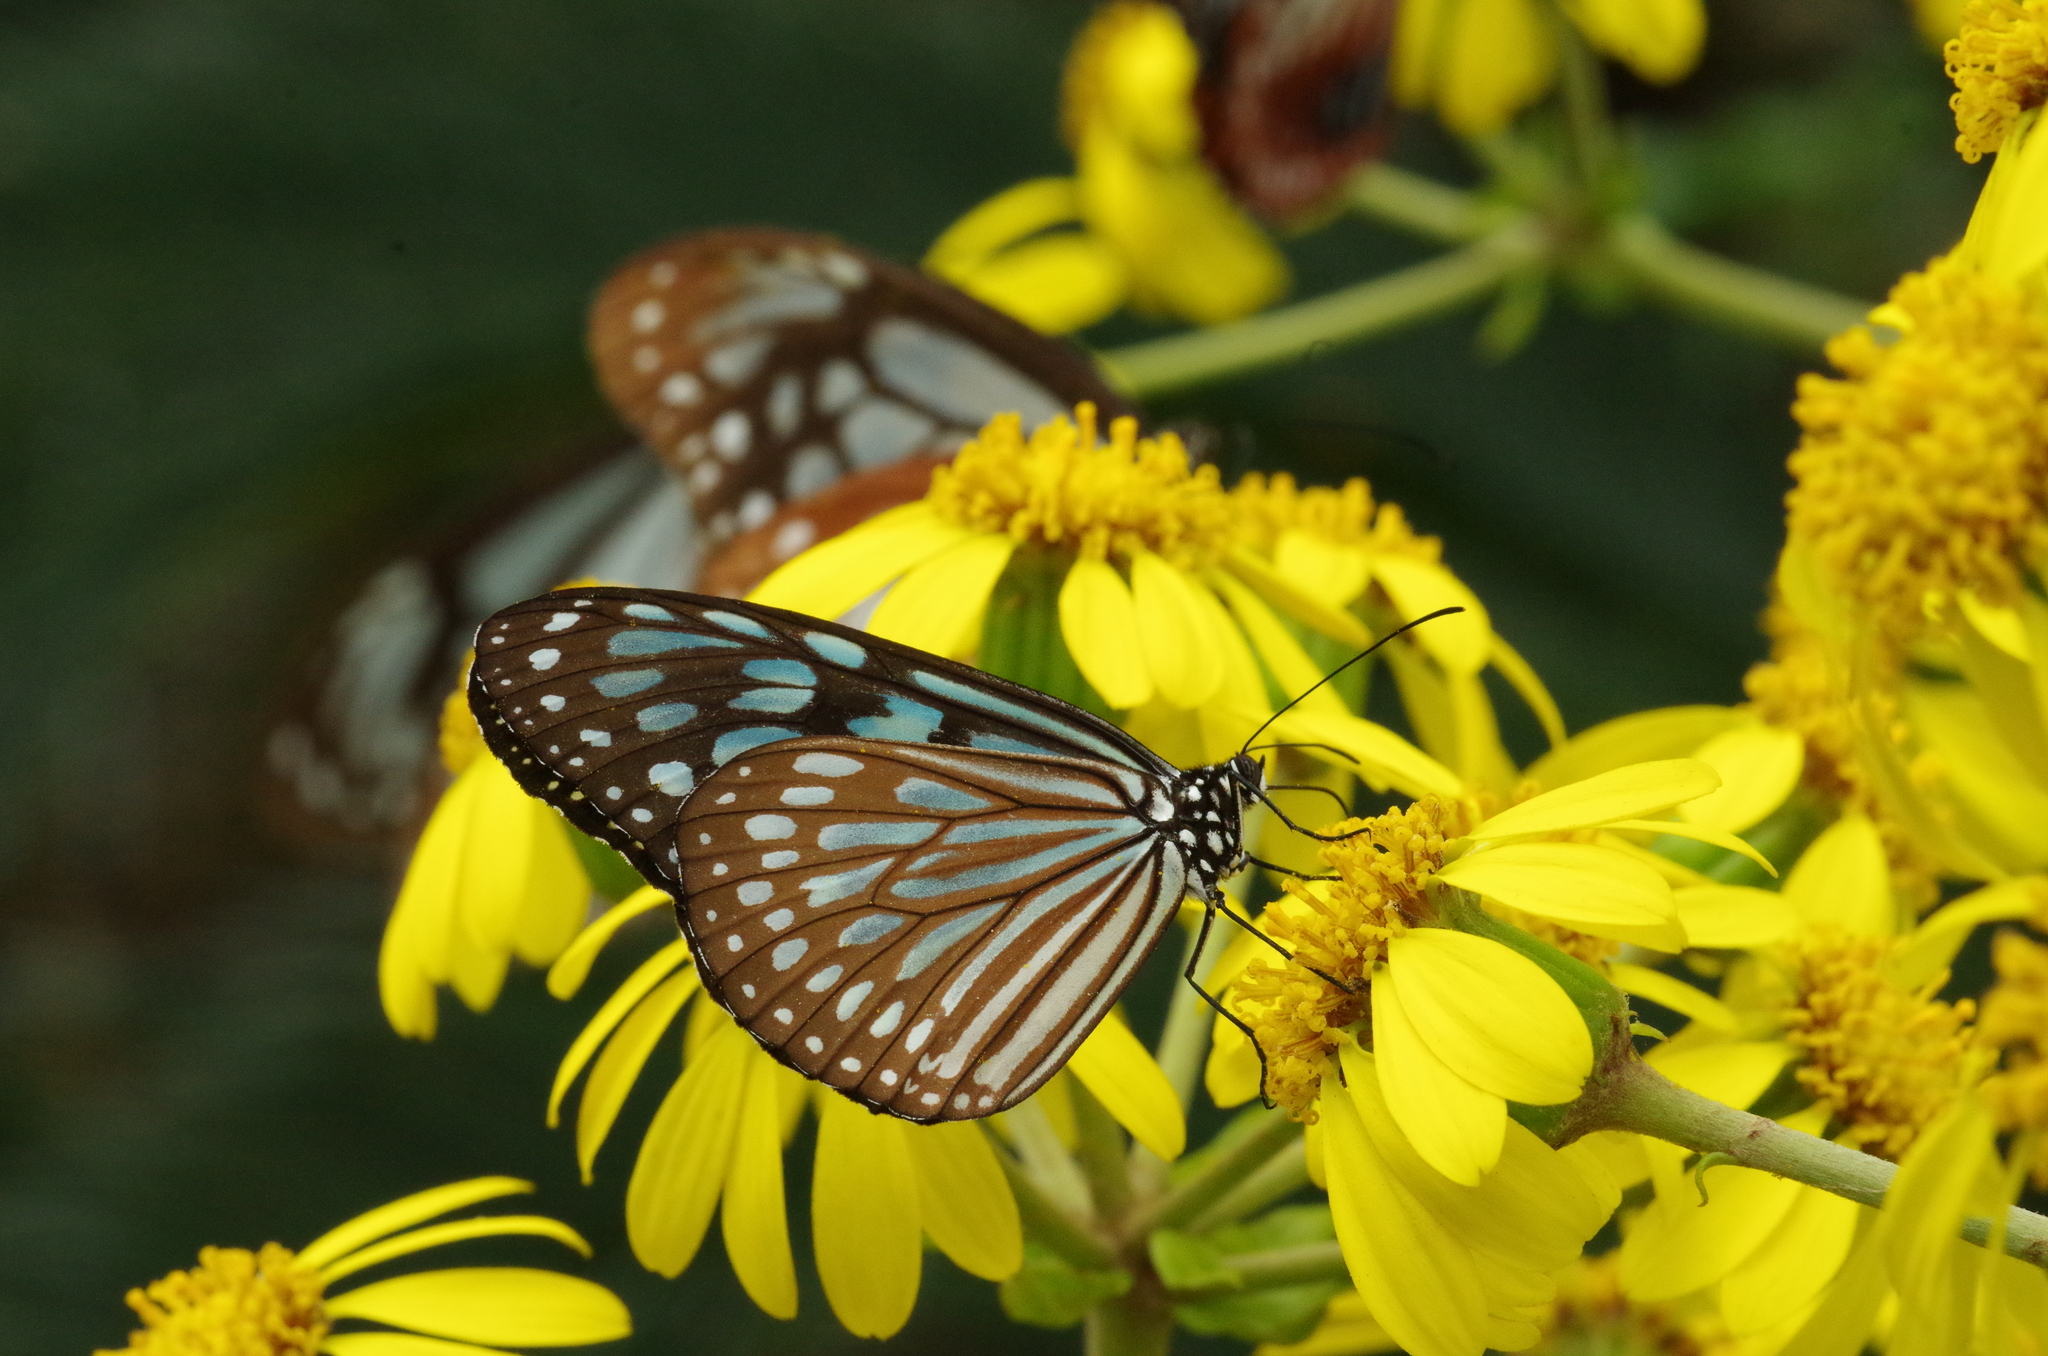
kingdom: Animalia
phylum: Arthropoda
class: Insecta
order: Lepidoptera
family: Nymphalidae
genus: Ideopsis
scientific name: Ideopsis similis
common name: Ceylon blue glassy tiger
